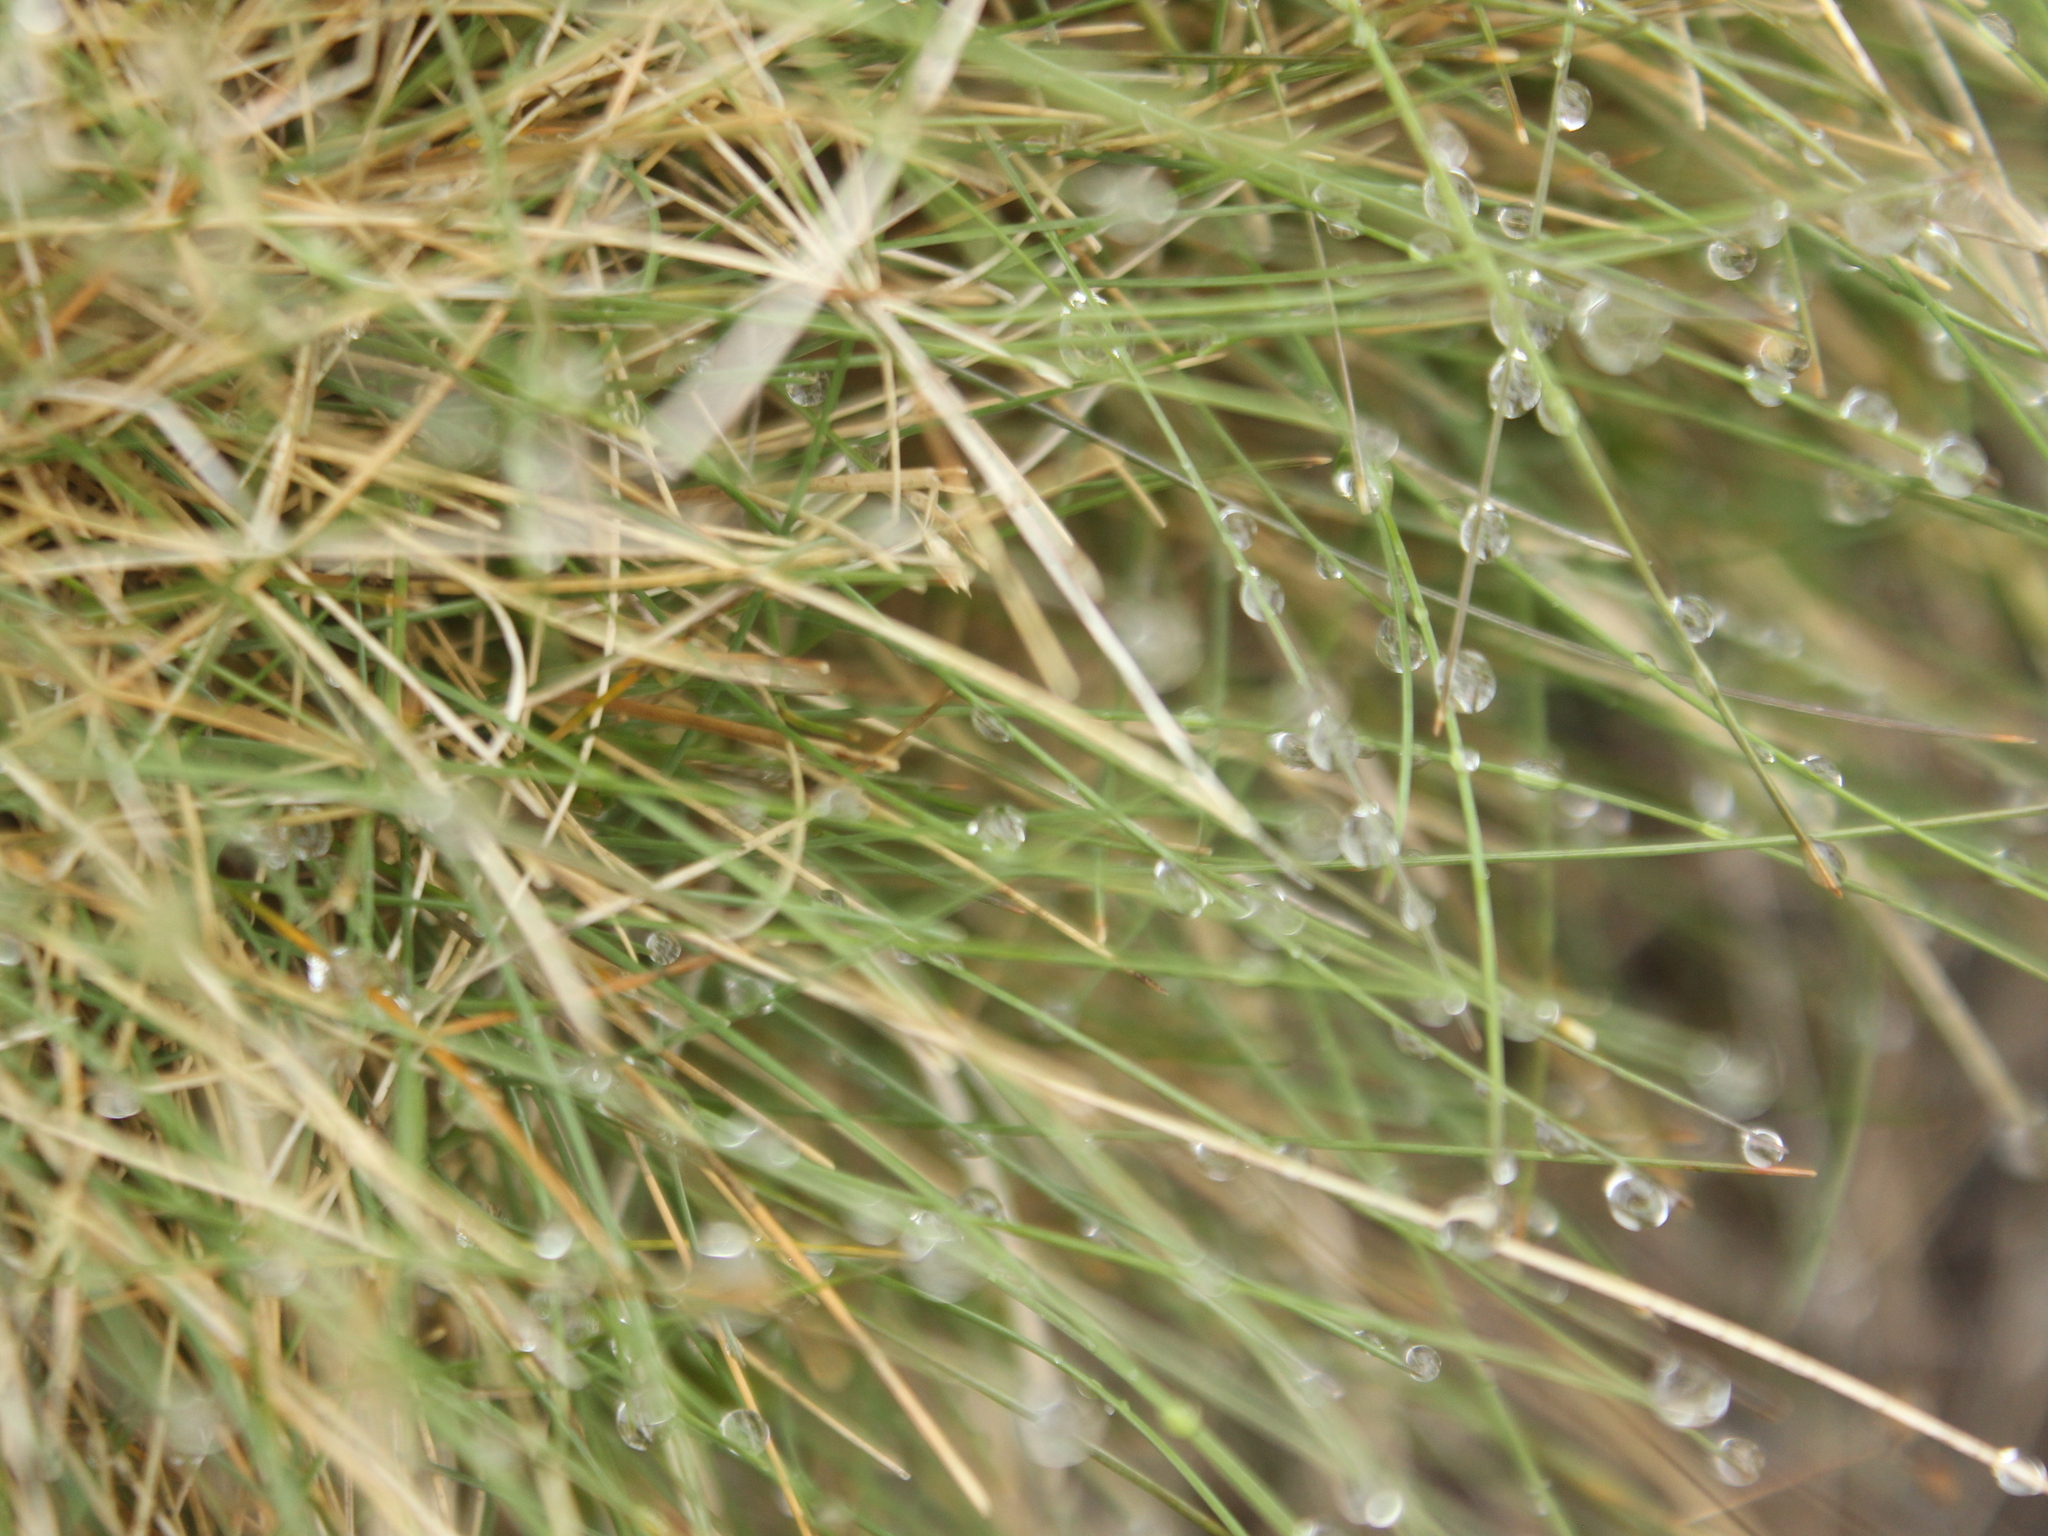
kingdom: Plantae
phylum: Tracheophyta
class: Liliopsida
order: Poales
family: Poaceae
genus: Poa
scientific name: Poa colensoi
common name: Blue tussock
